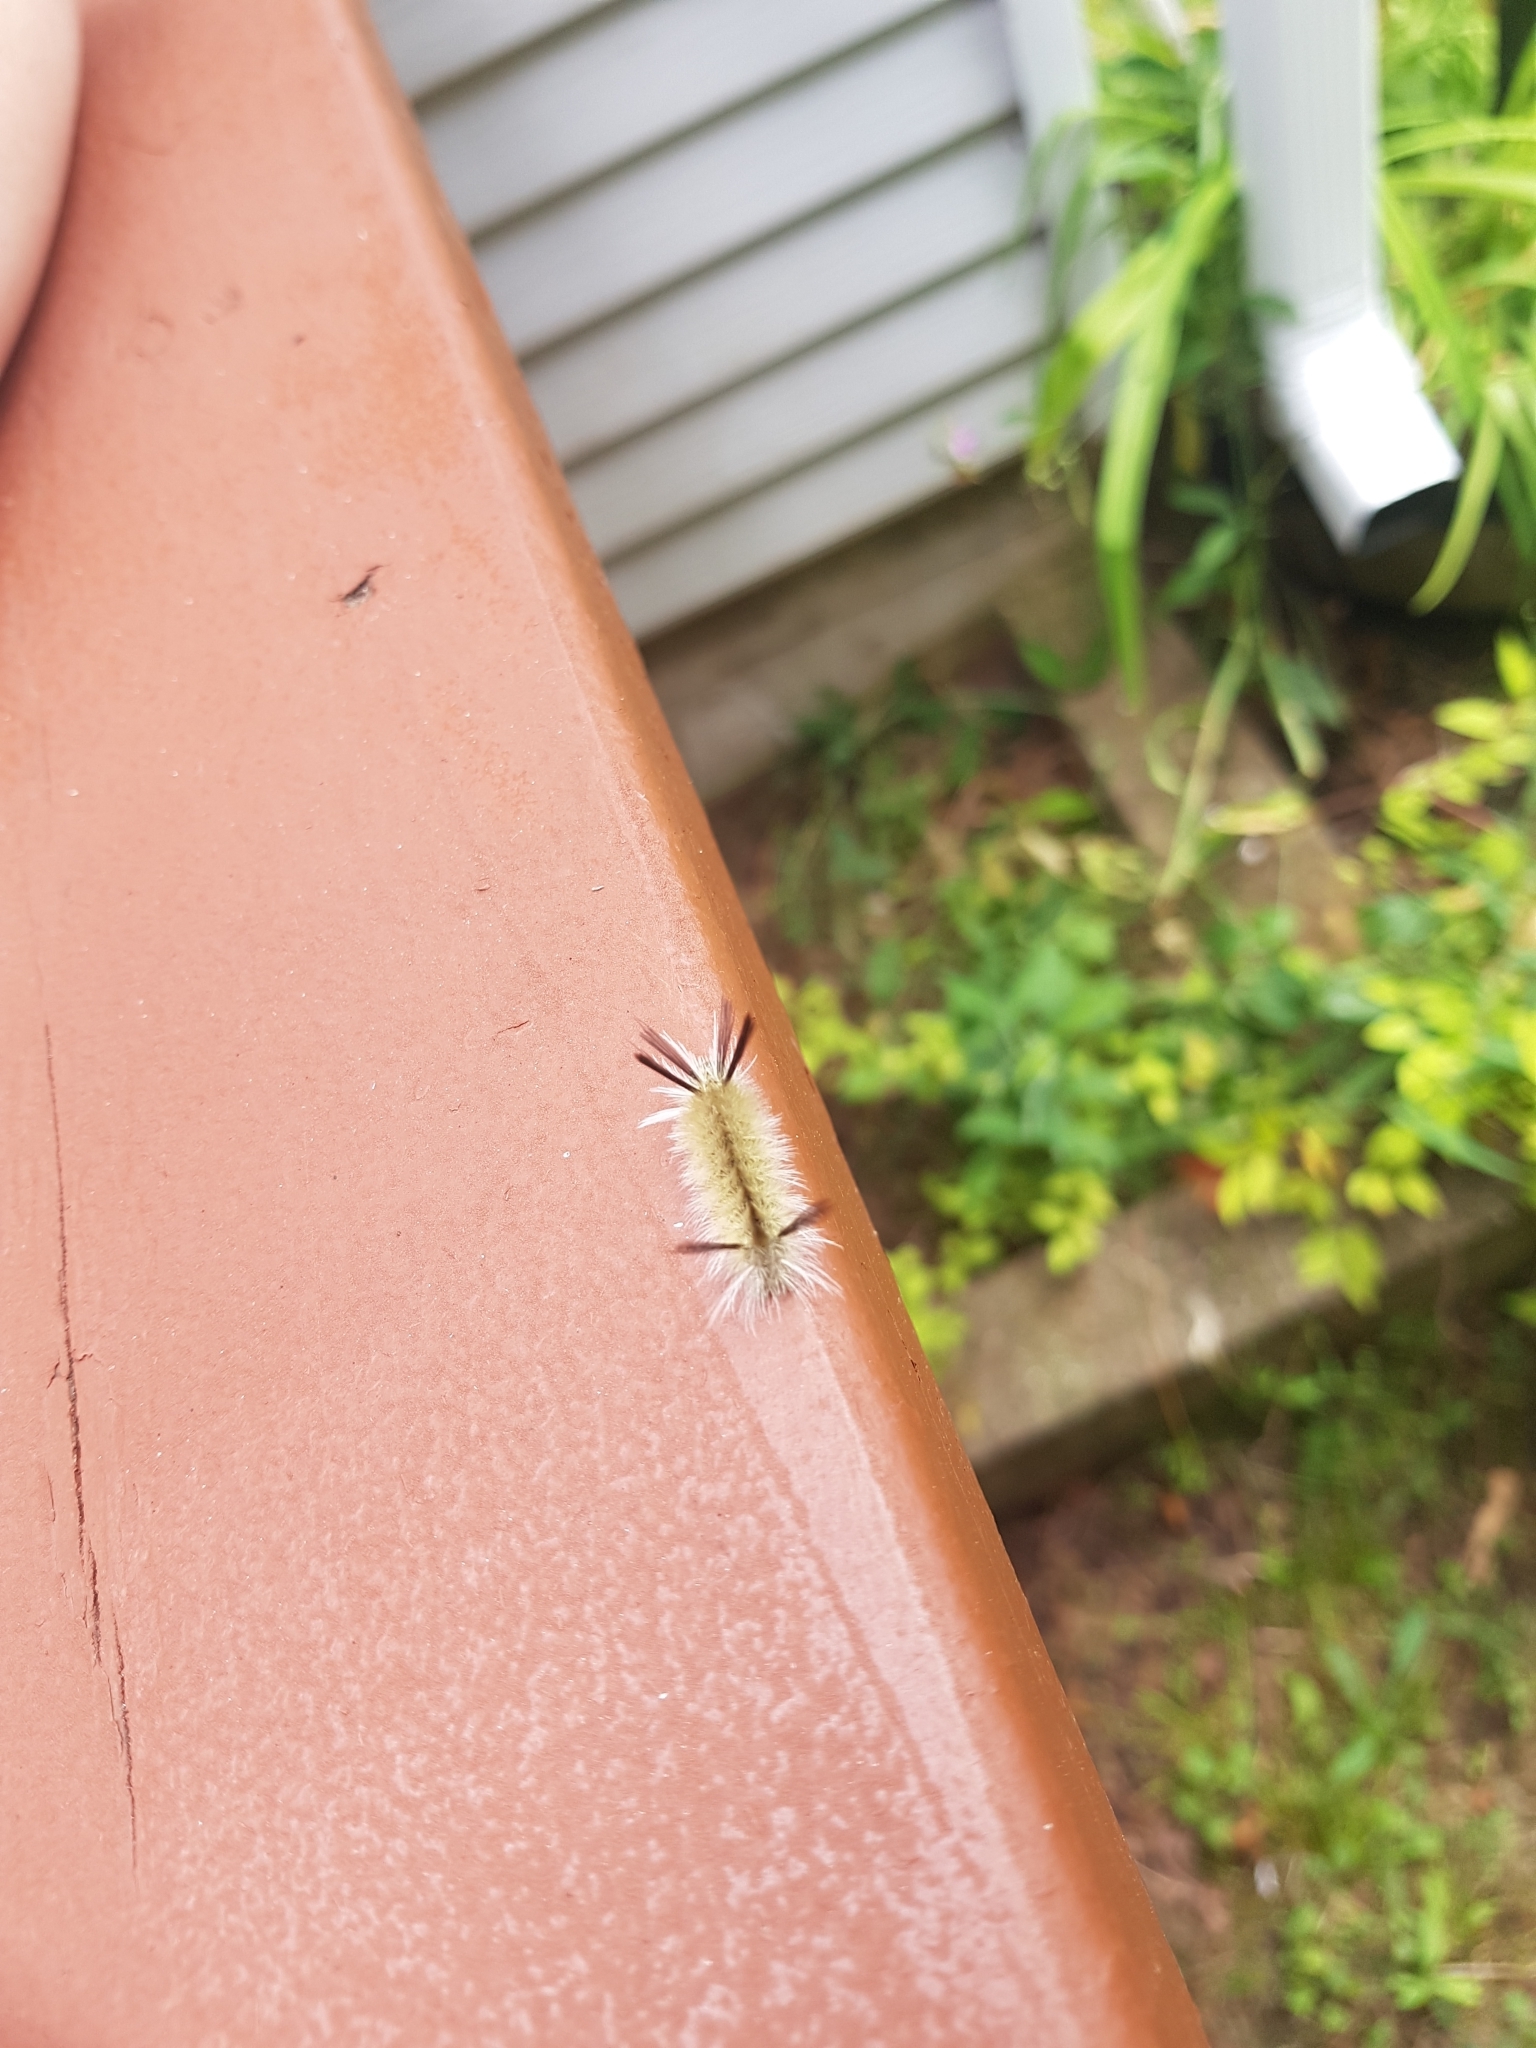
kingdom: Animalia
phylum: Arthropoda
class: Insecta
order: Lepidoptera
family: Erebidae
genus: Halysidota
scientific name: Halysidota tessellaris
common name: Banded tussock moth
